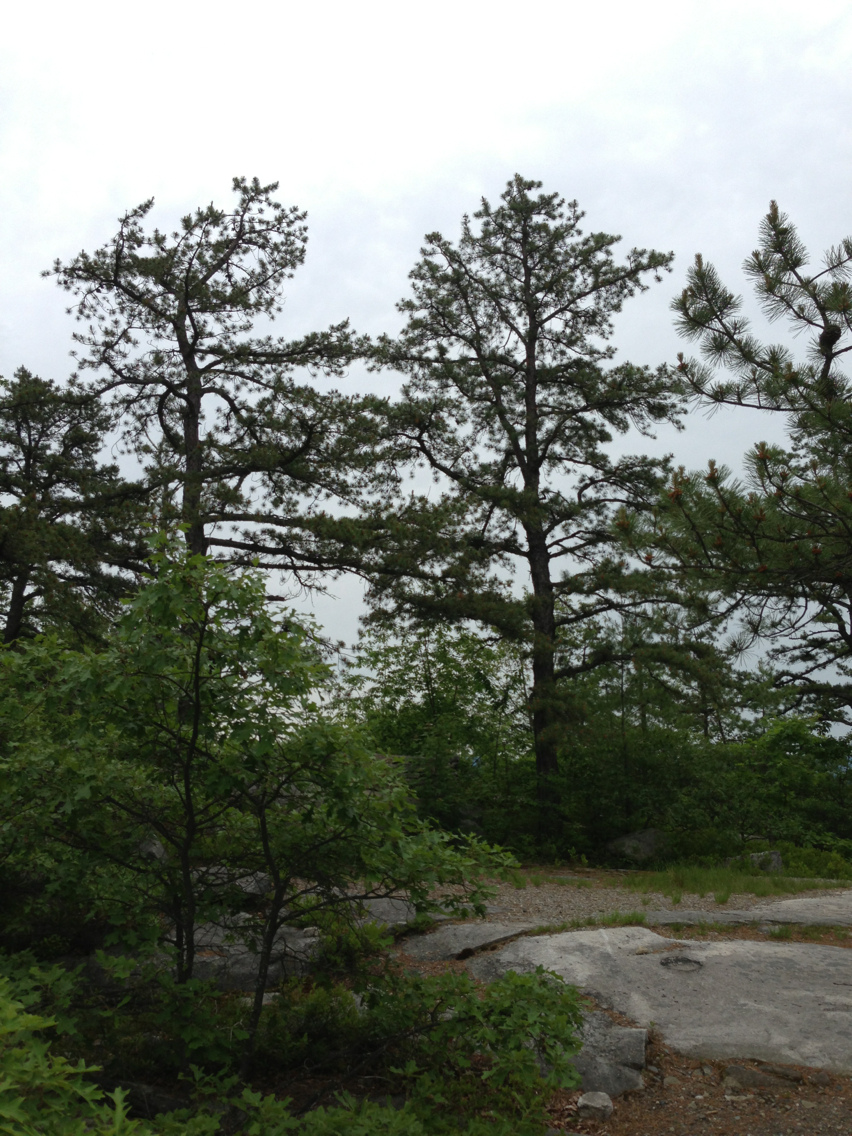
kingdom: Plantae
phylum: Tracheophyta
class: Pinopsida
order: Pinales
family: Pinaceae
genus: Pinus
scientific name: Pinus rigida
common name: Pitch pine
